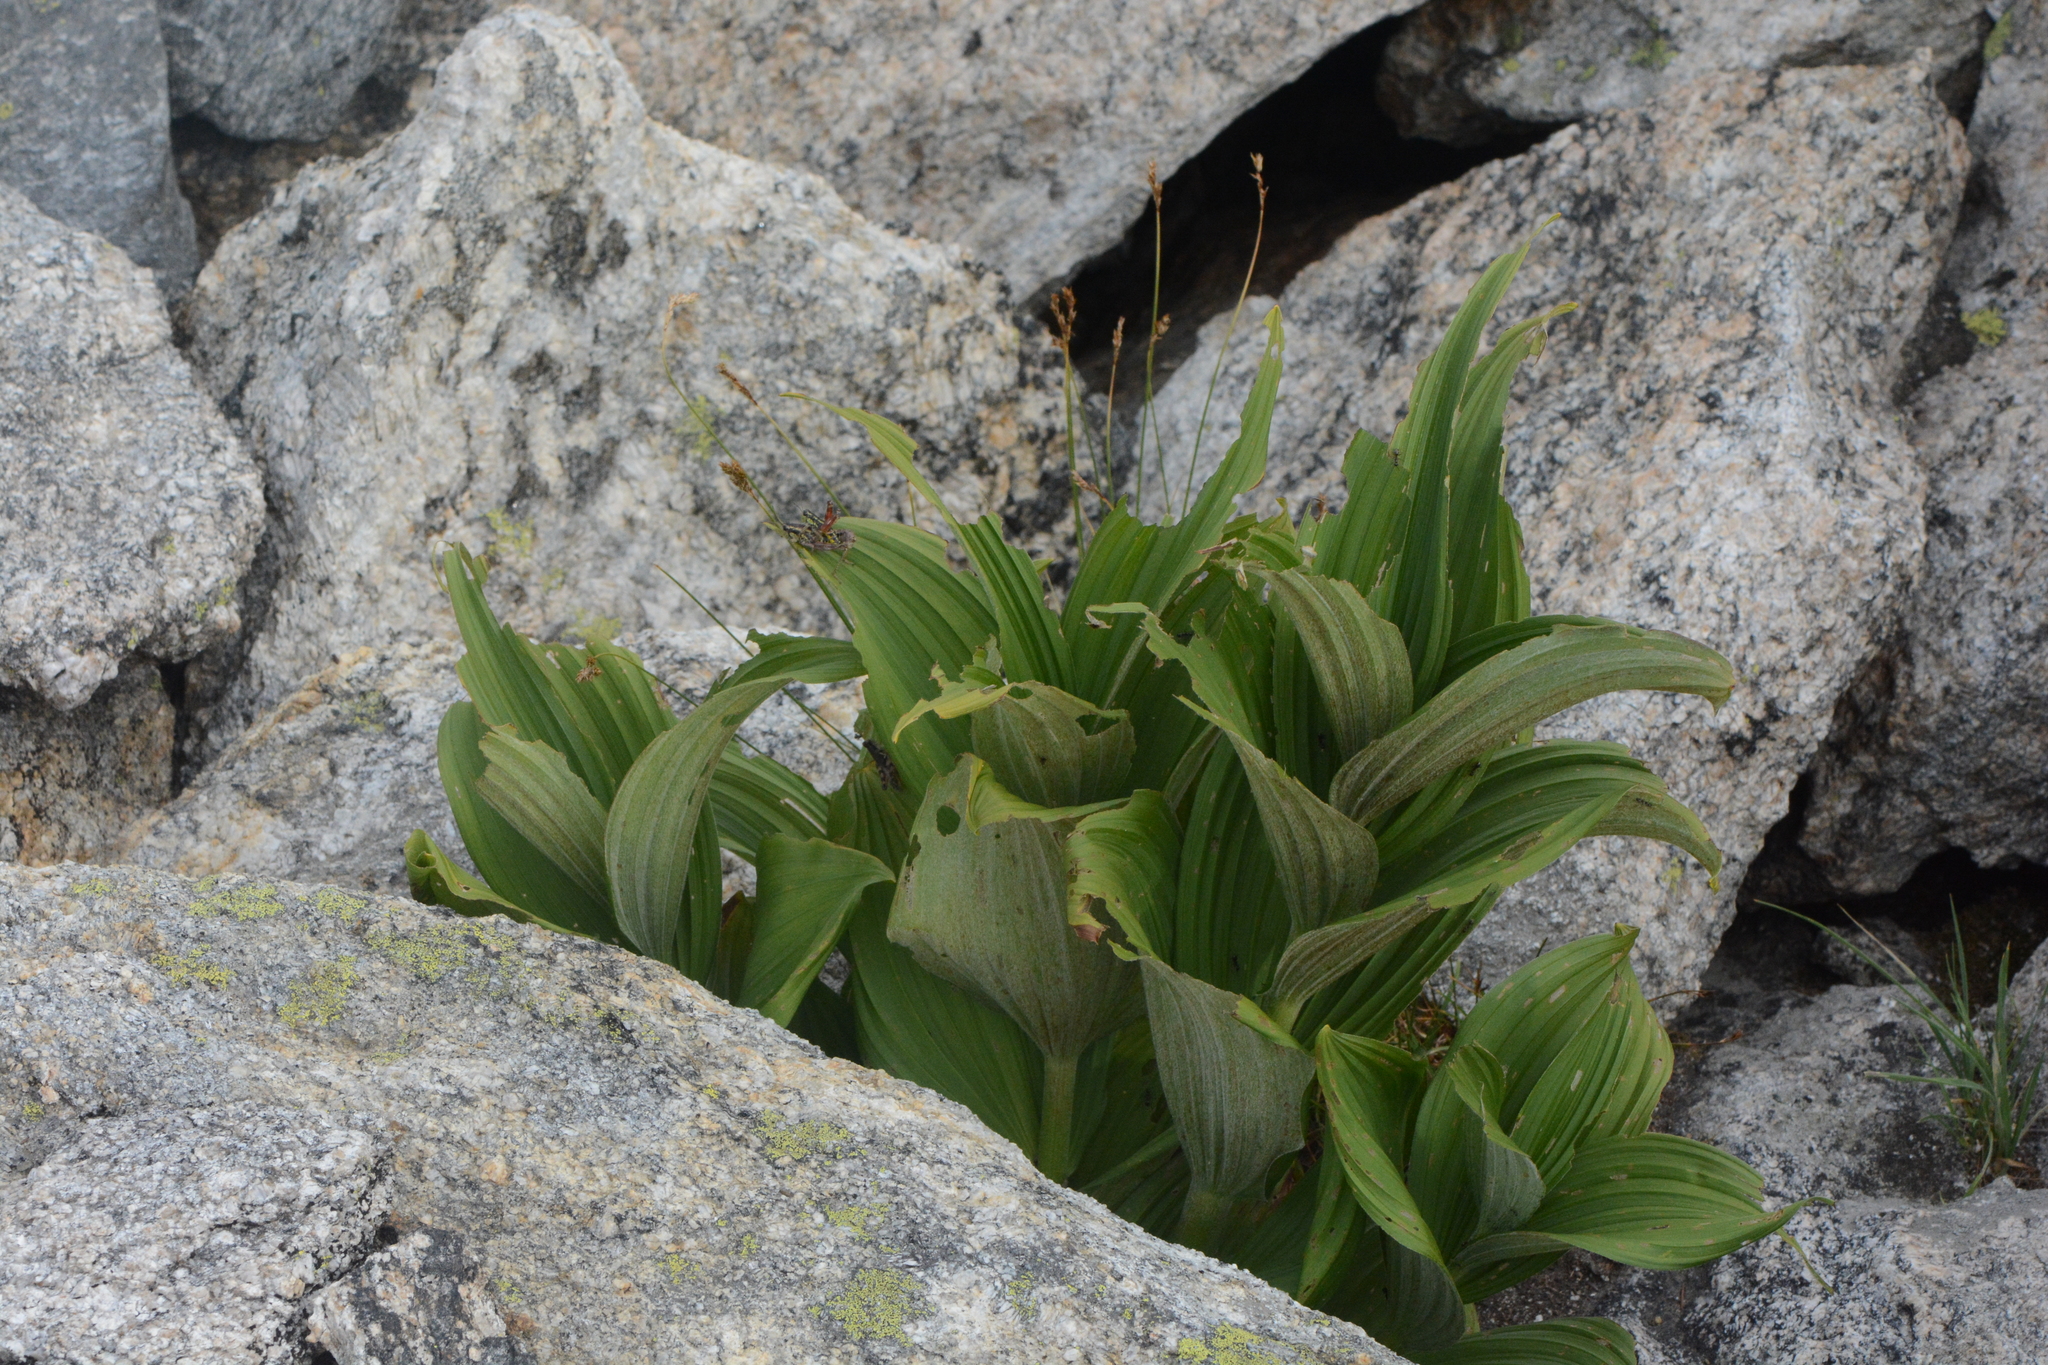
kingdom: Plantae
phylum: Tracheophyta
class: Liliopsida
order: Liliales
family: Melanthiaceae
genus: Veratrum
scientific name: Veratrum viride
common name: American false hellebore
